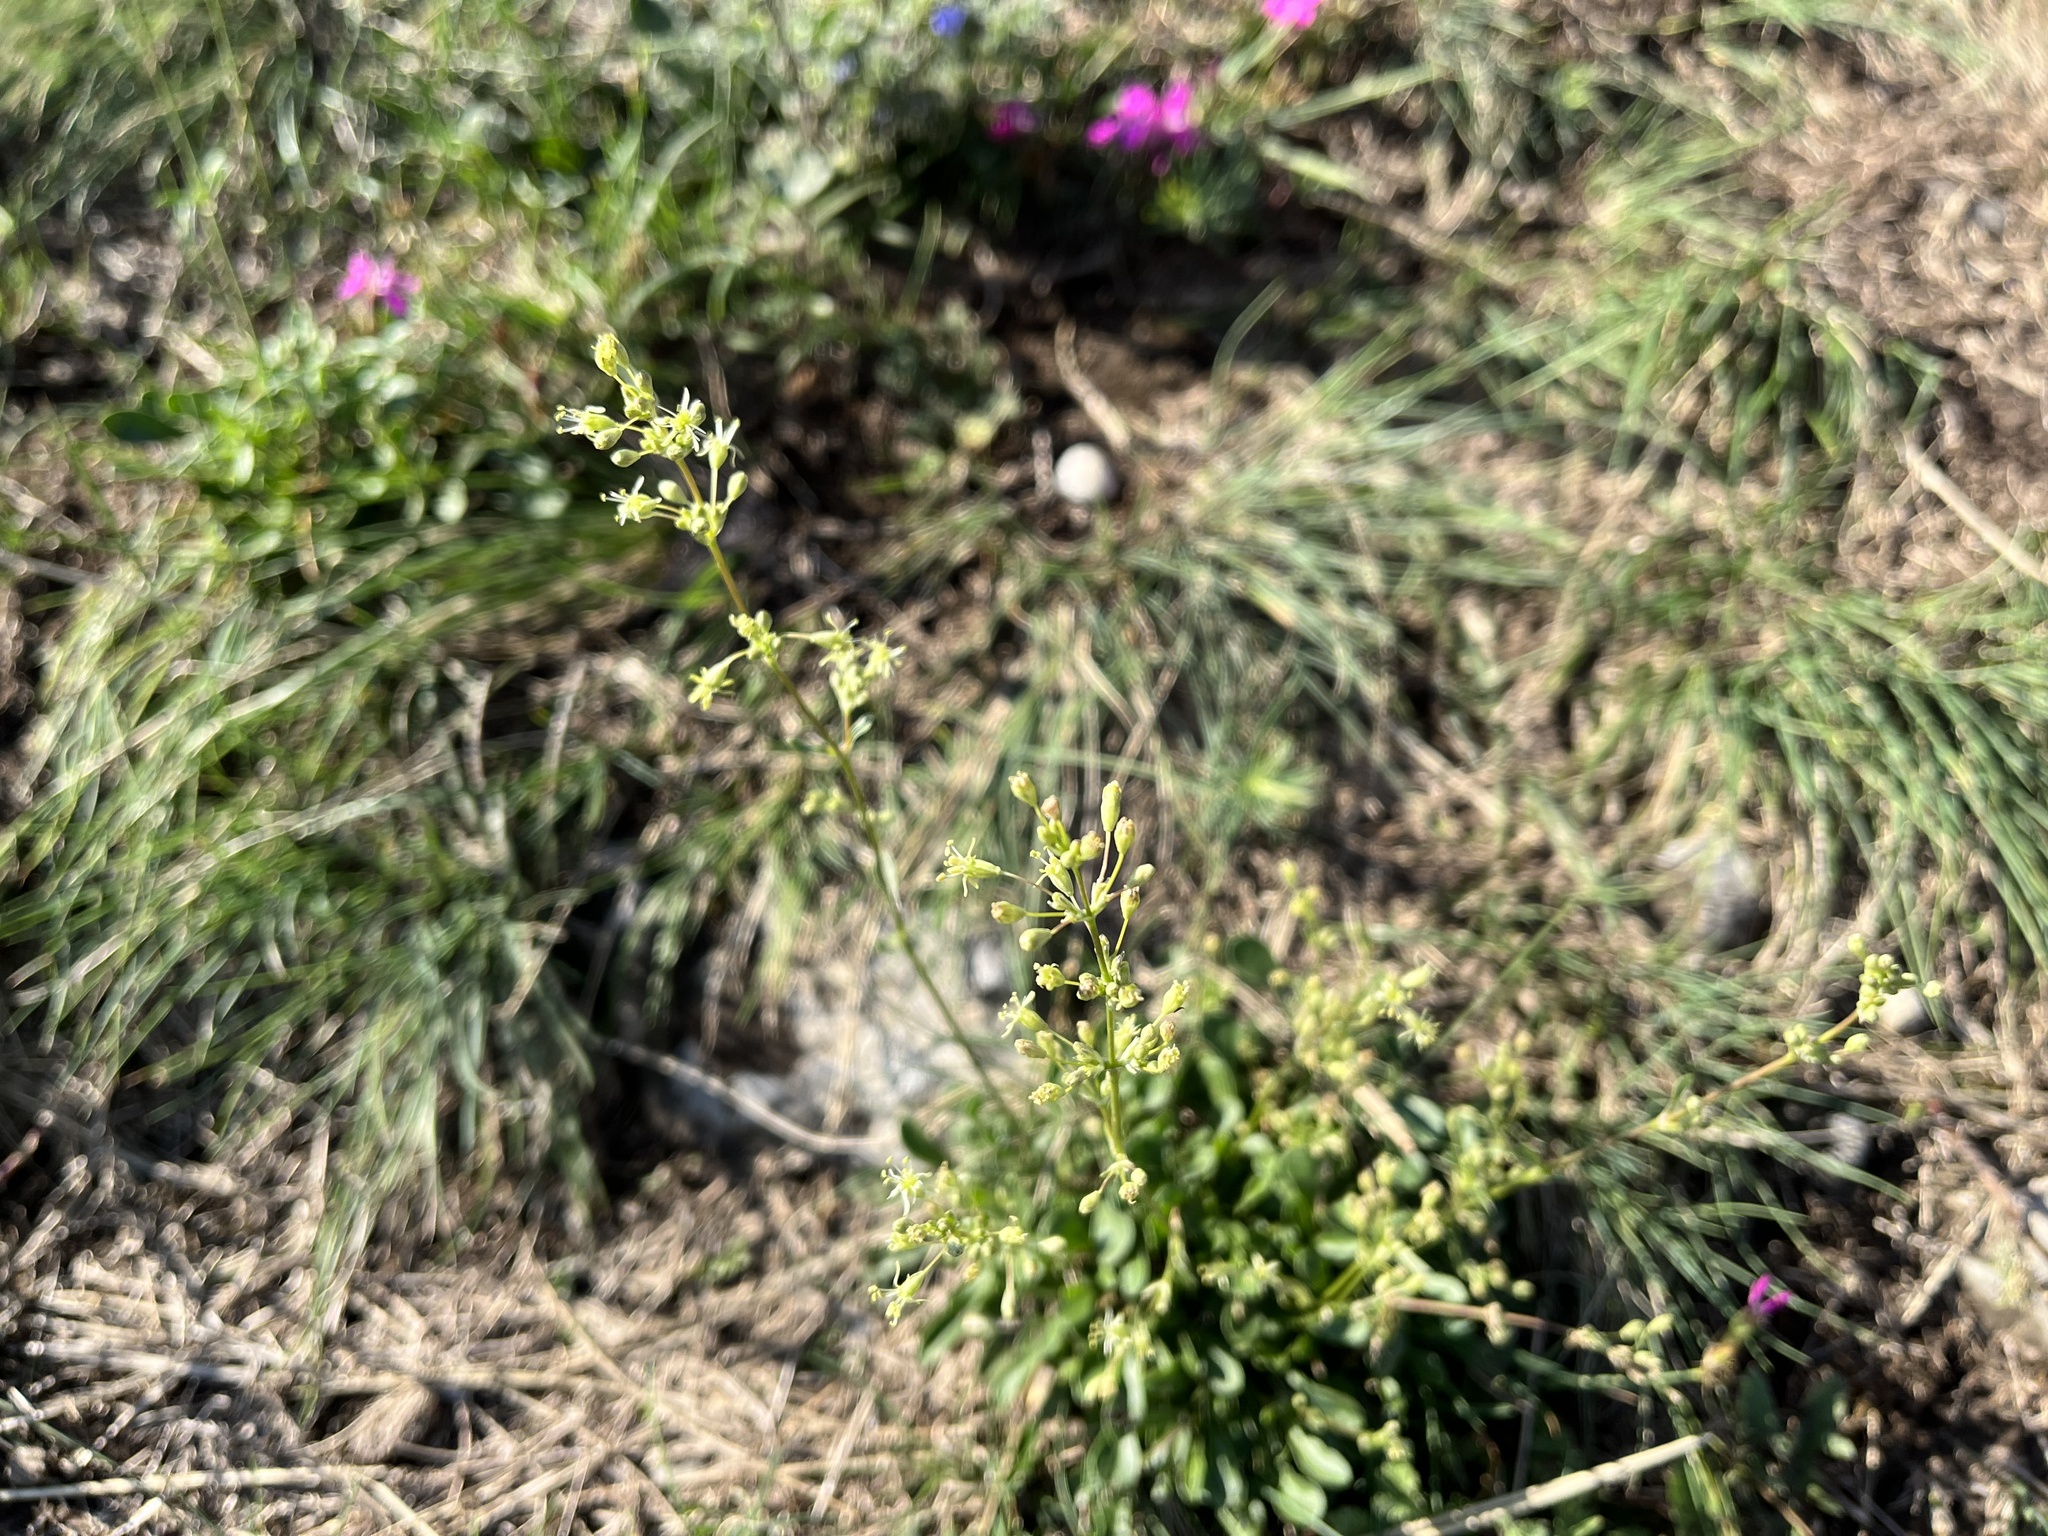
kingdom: Plantae
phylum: Tracheophyta
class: Magnoliopsida
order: Caryophyllales
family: Caryophyllaceae
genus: Silene
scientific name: Silene otites
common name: Spanish catchfly
